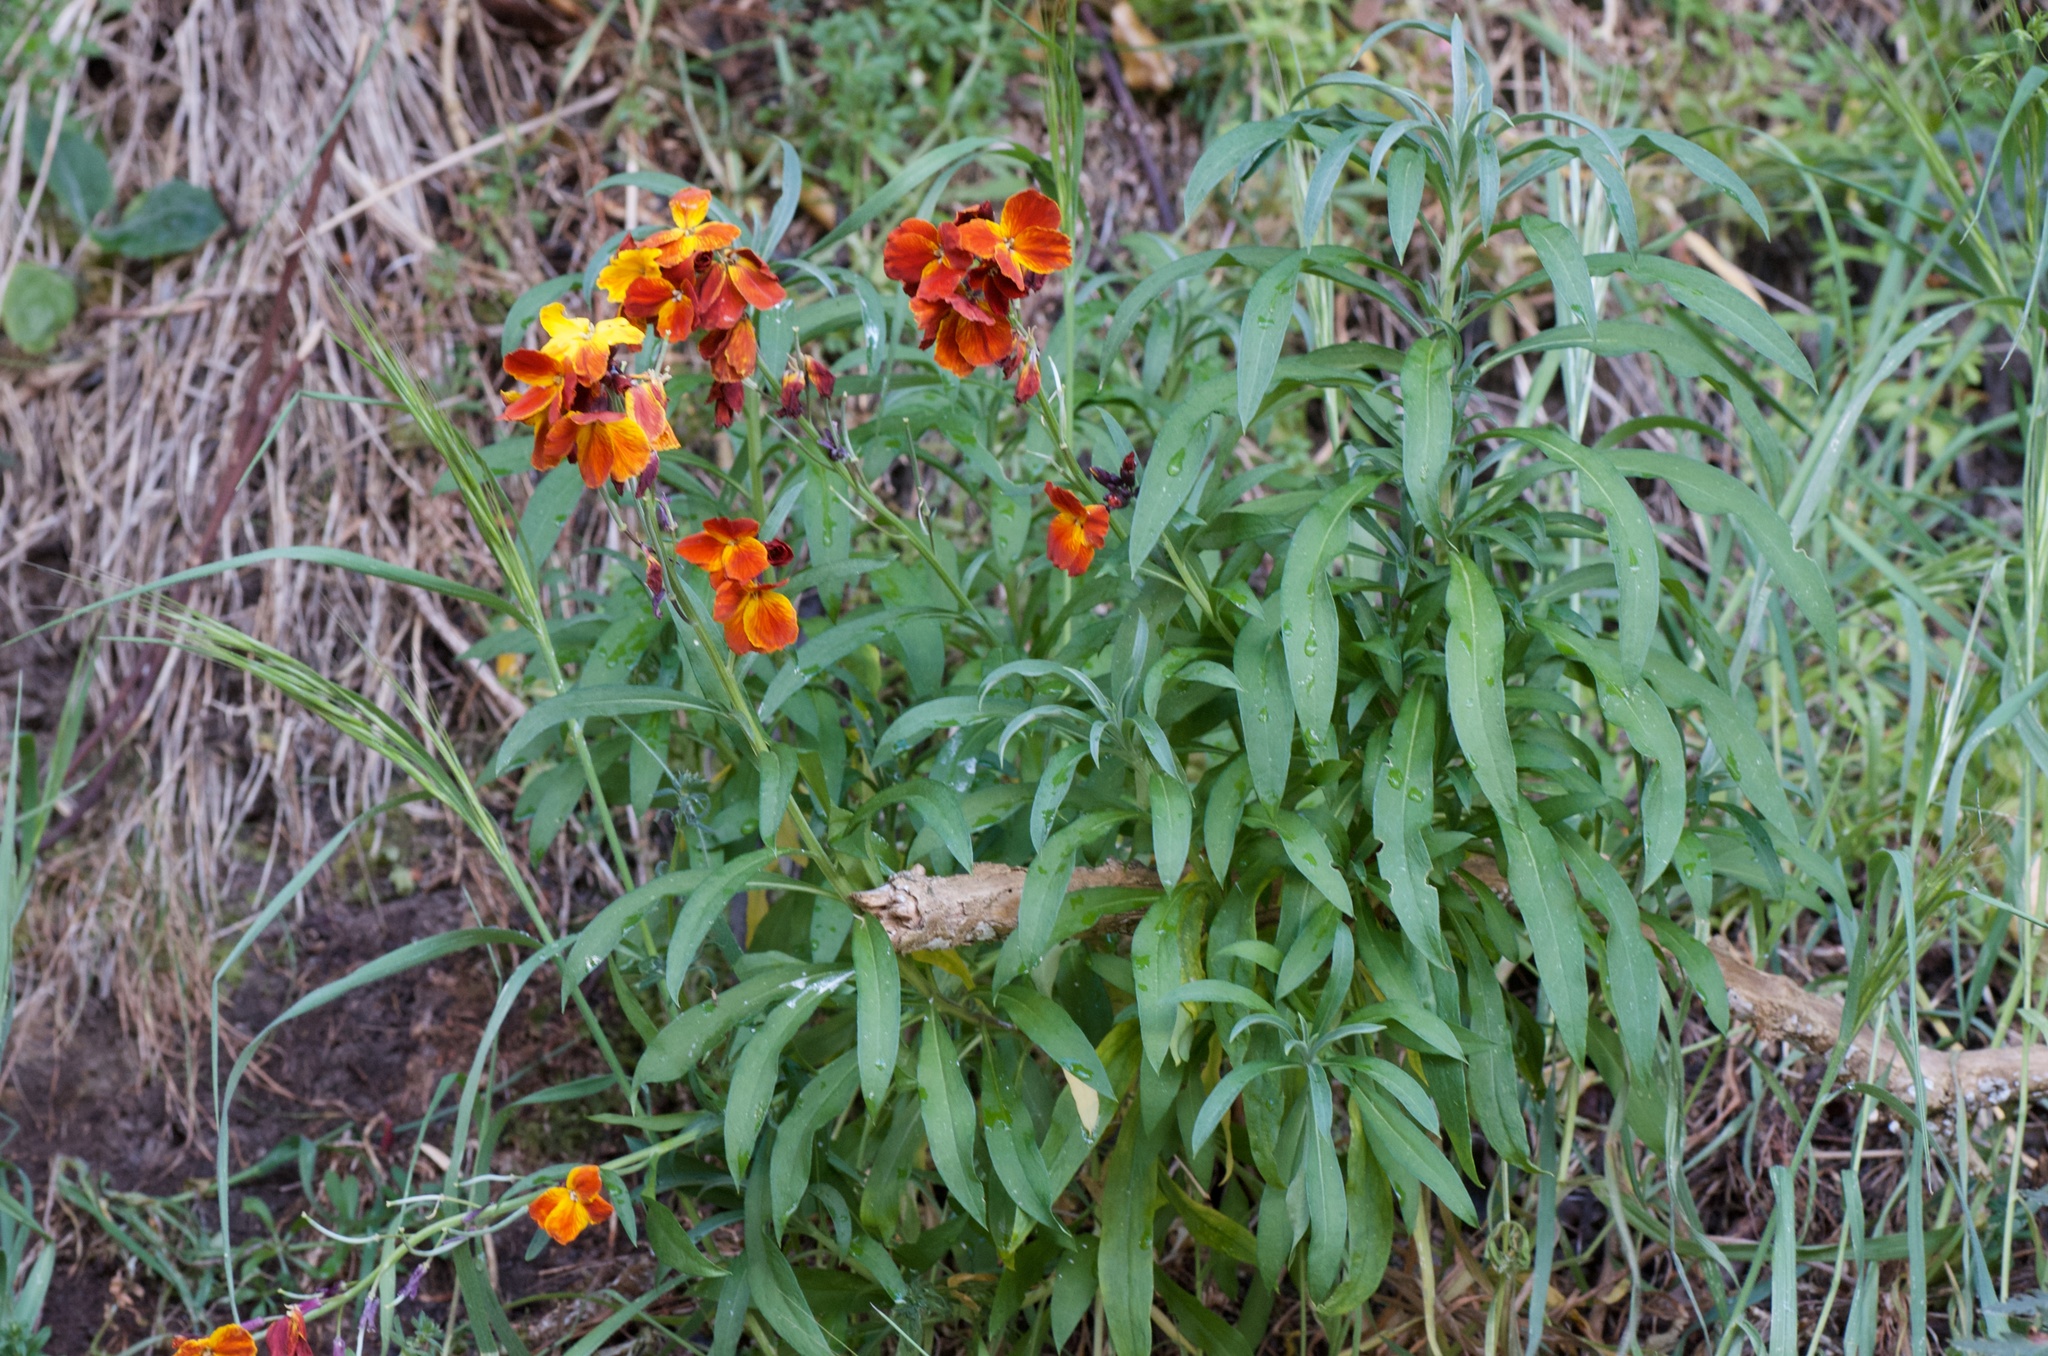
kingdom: Plantae
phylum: Tracheophyta
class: Magnoliopsida
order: Brassicales
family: Brassicaceae
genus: Erysimum
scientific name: Erysimum cheiri
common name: Wallflower
